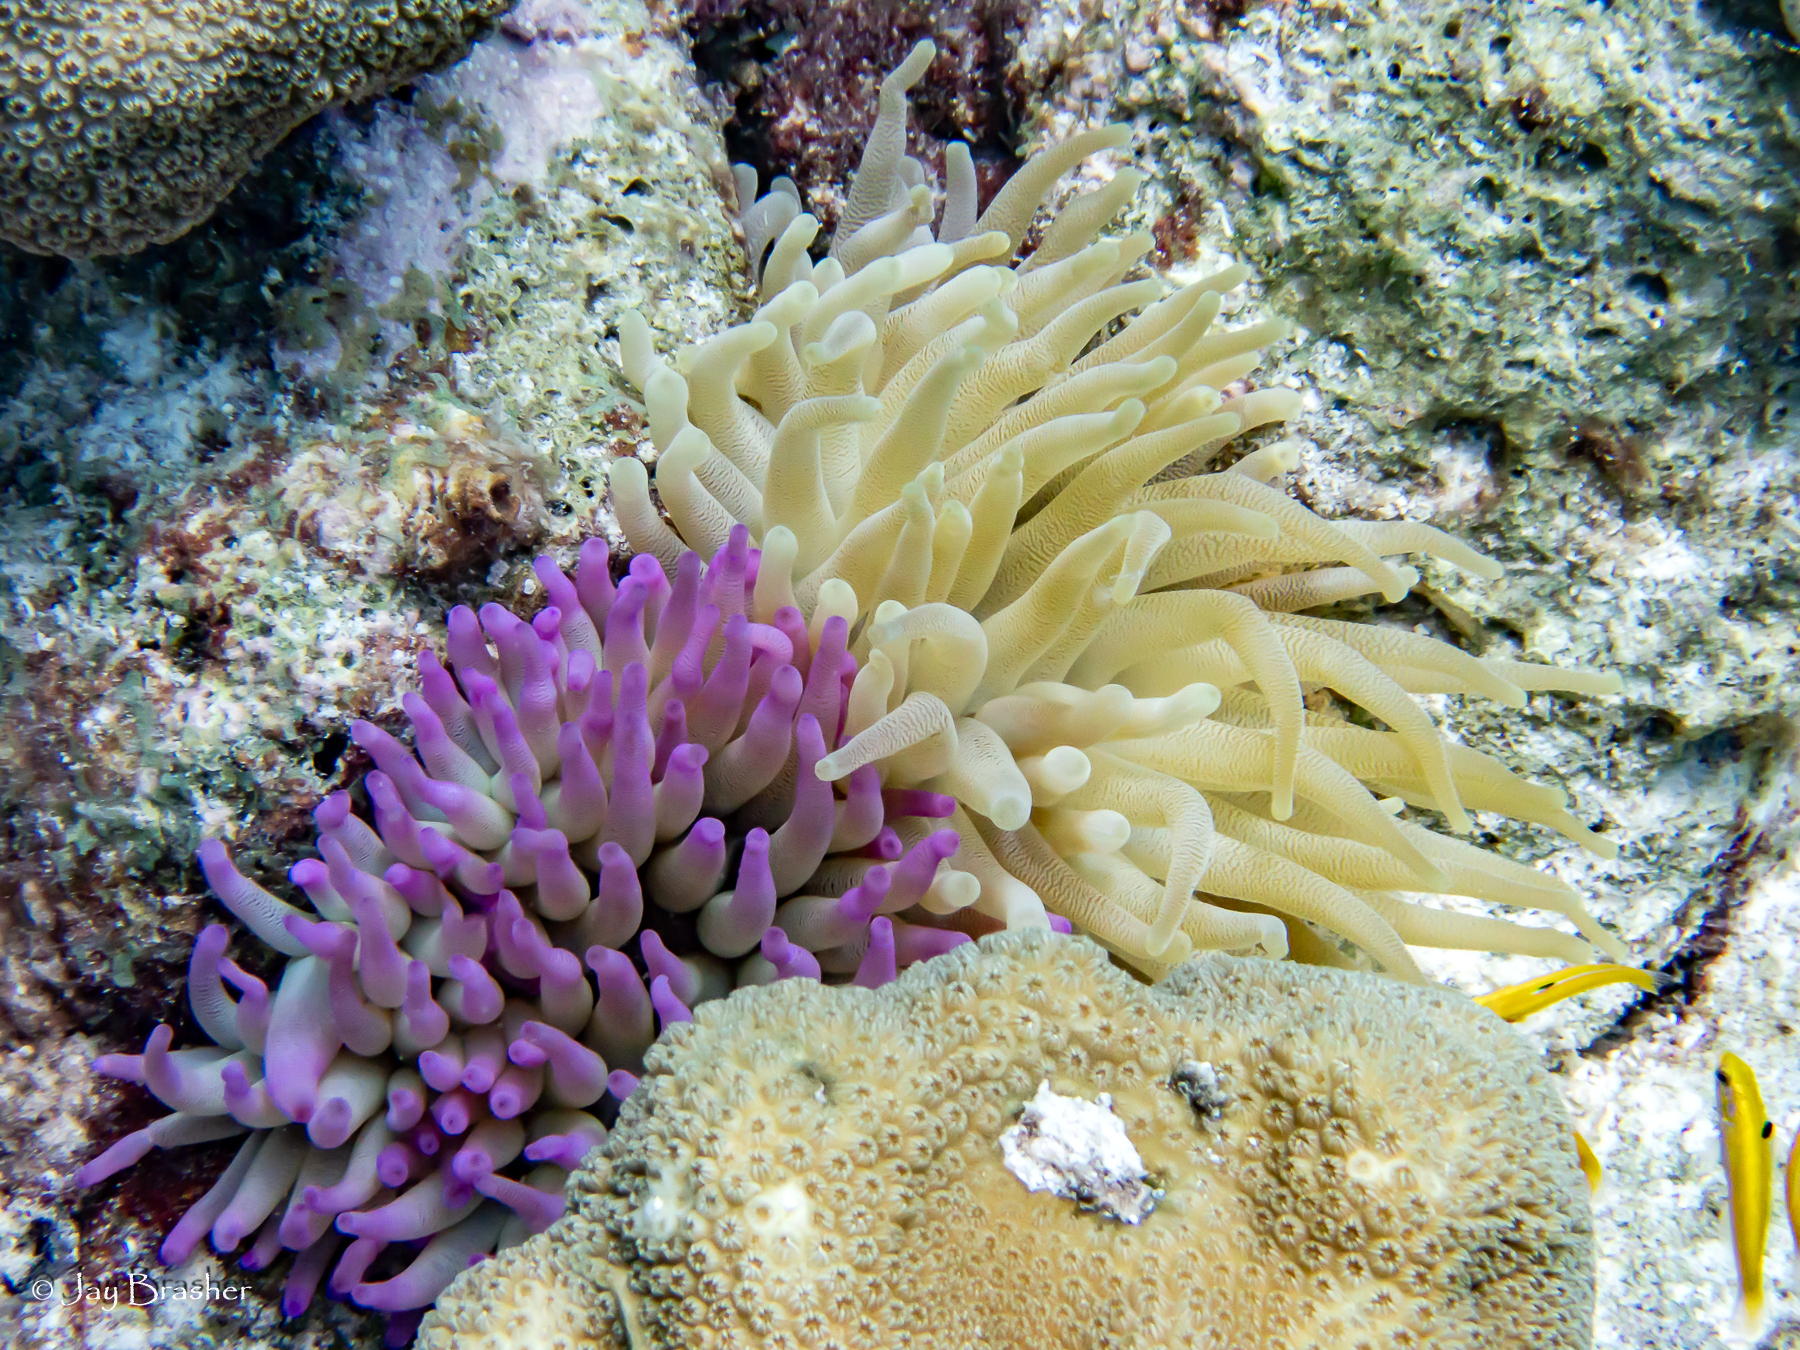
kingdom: Animalia
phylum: Cnidaria
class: Anthozoa
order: Actiniaria
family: Actiniidae
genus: Condylactis
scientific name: Condylactis gigantea
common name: Giant caribbean anemone
